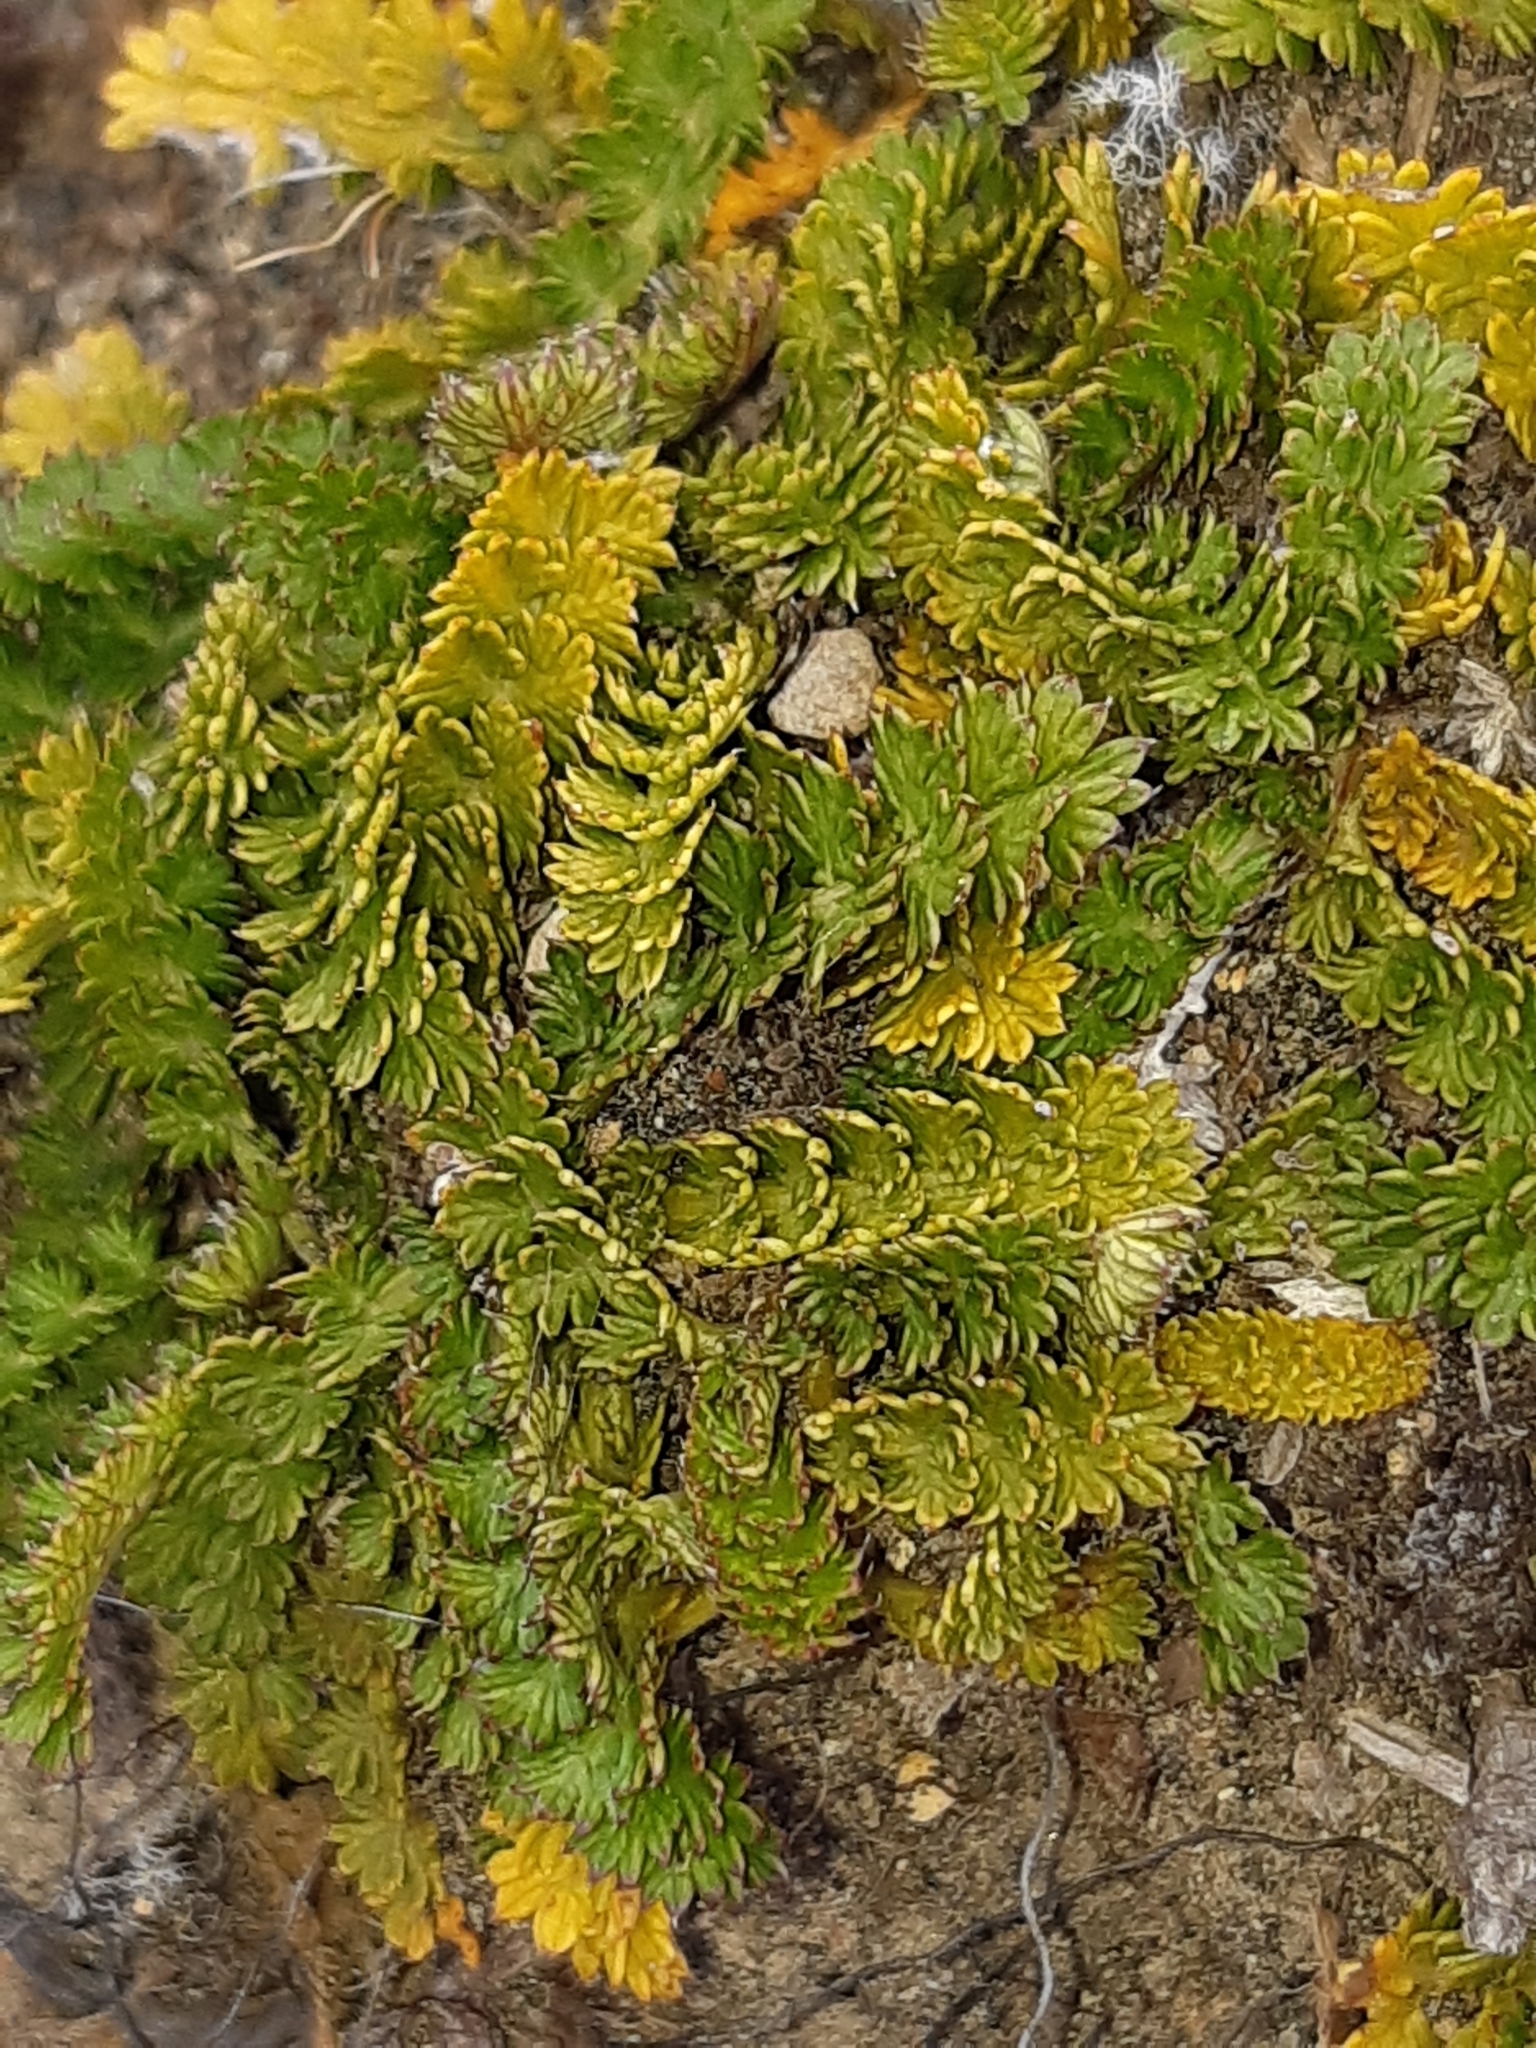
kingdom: Plantae
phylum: Tracheophyta
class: Magnoliopsida
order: Apiales
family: Apiaceae
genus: Anisotome
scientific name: Anisotome aromatica
